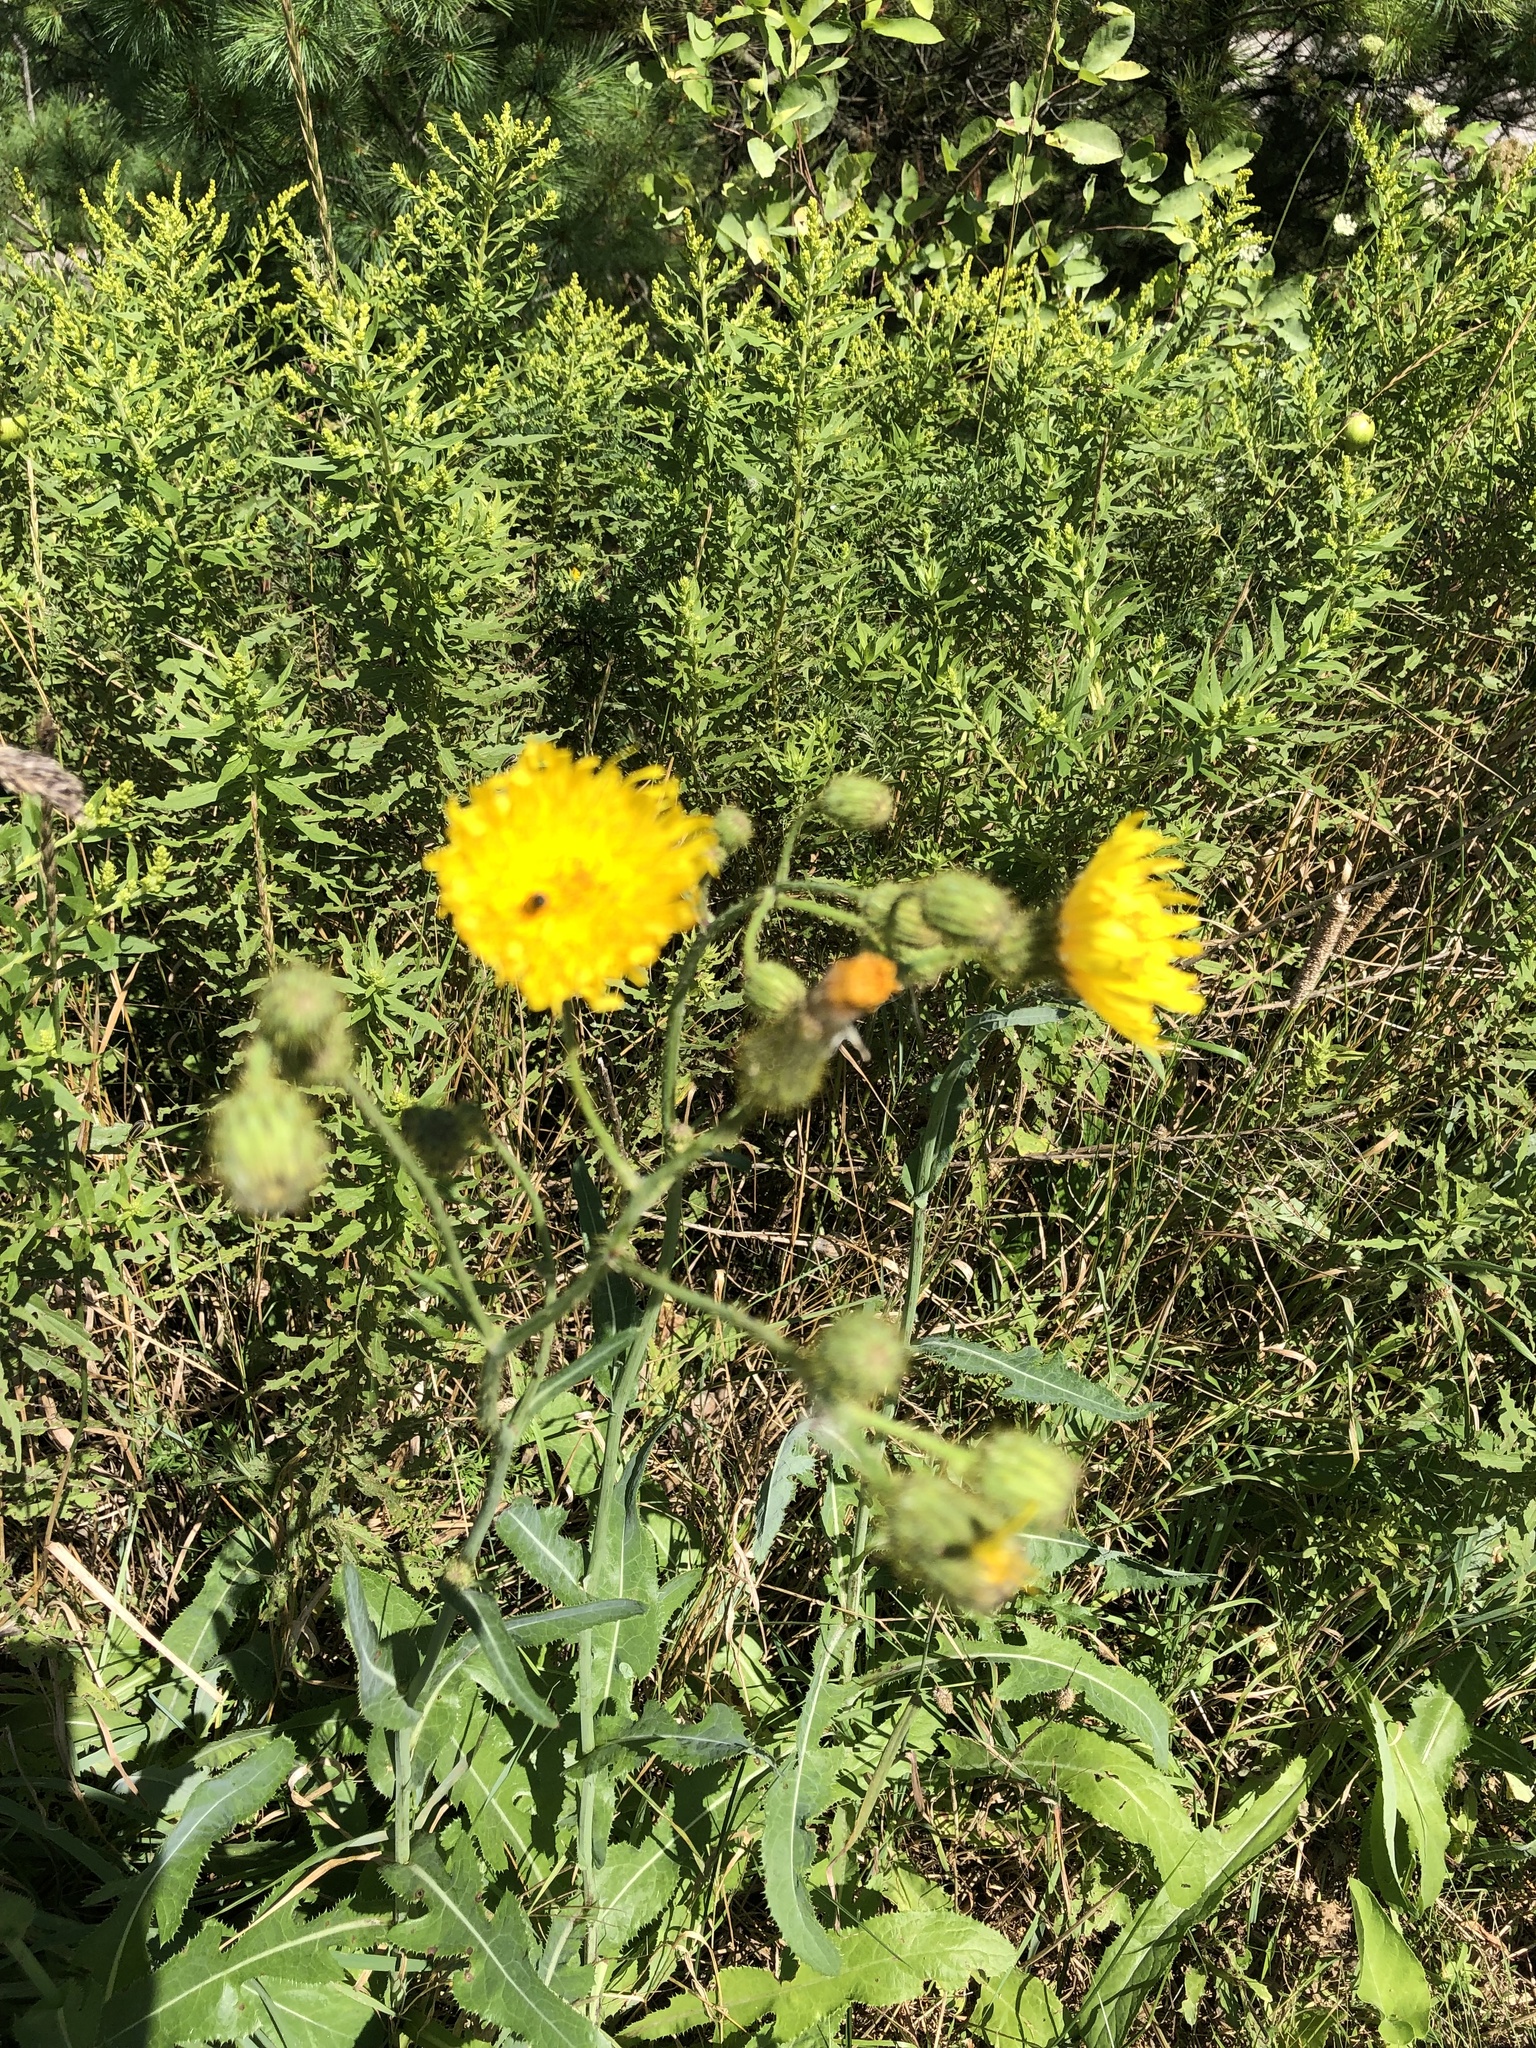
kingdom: Plantae
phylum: Tracheophyta
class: Magnoliopsida
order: Asterales
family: Asteraceae
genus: Sonchus
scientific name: Sonchus arvensis
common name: Perennial sow-thistle
